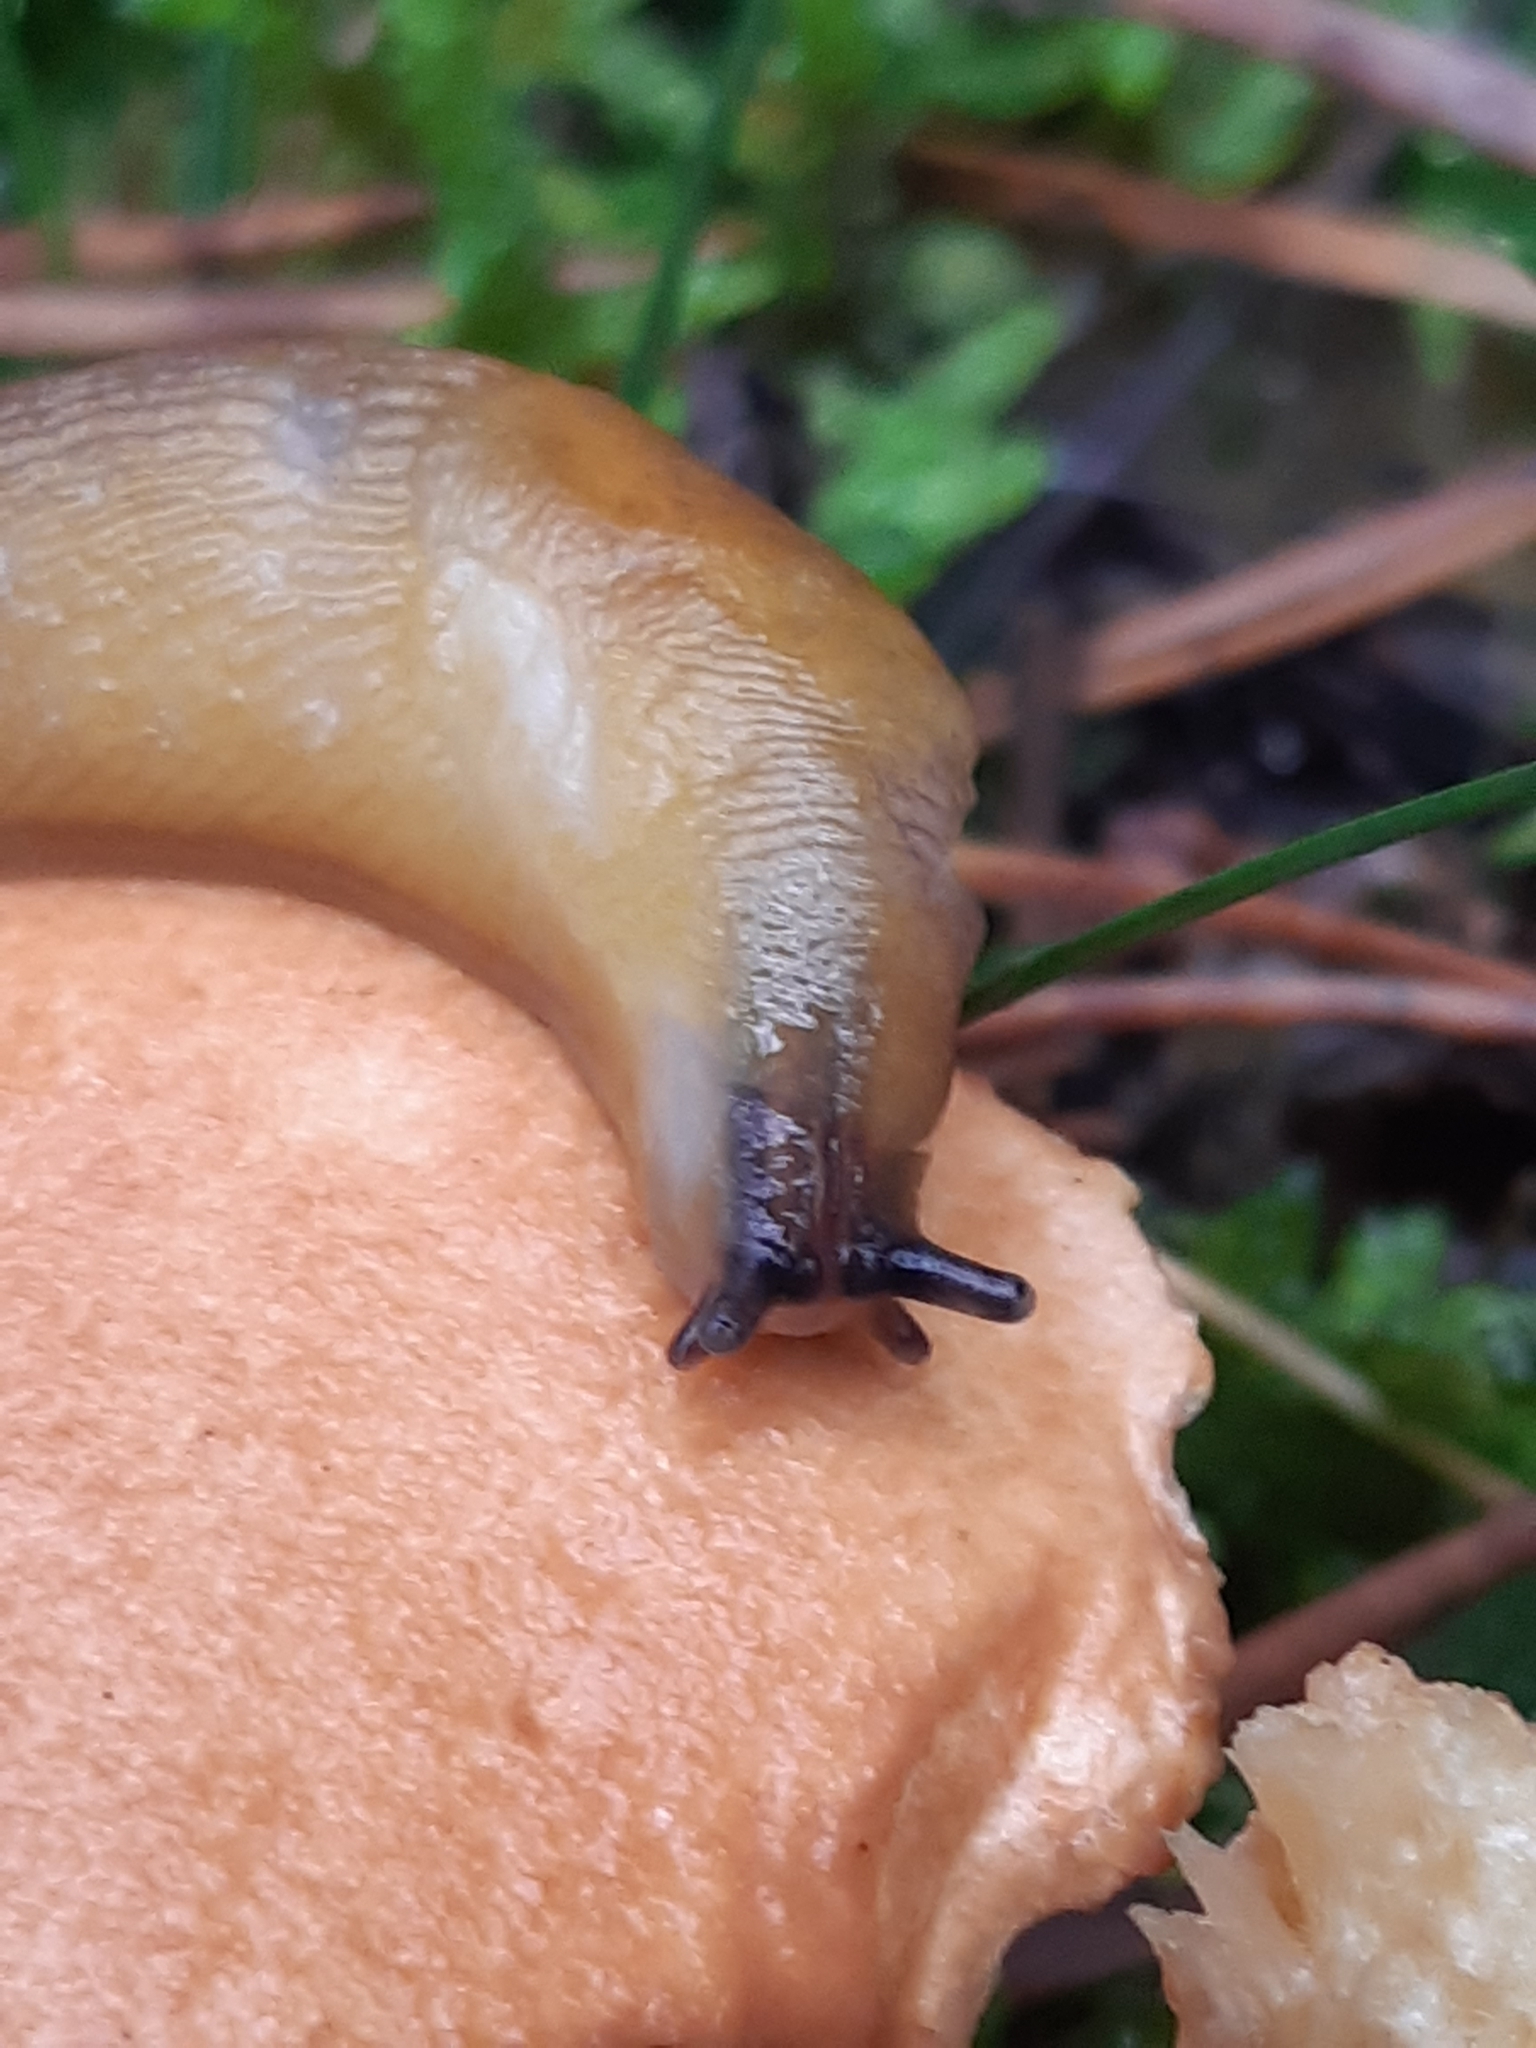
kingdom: Animalia
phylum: Mollusca
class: Gastropoda
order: Stylommatophora
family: Limacidae
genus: Malacolimax
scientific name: Malacolimax tenellus
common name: Lemon slug
